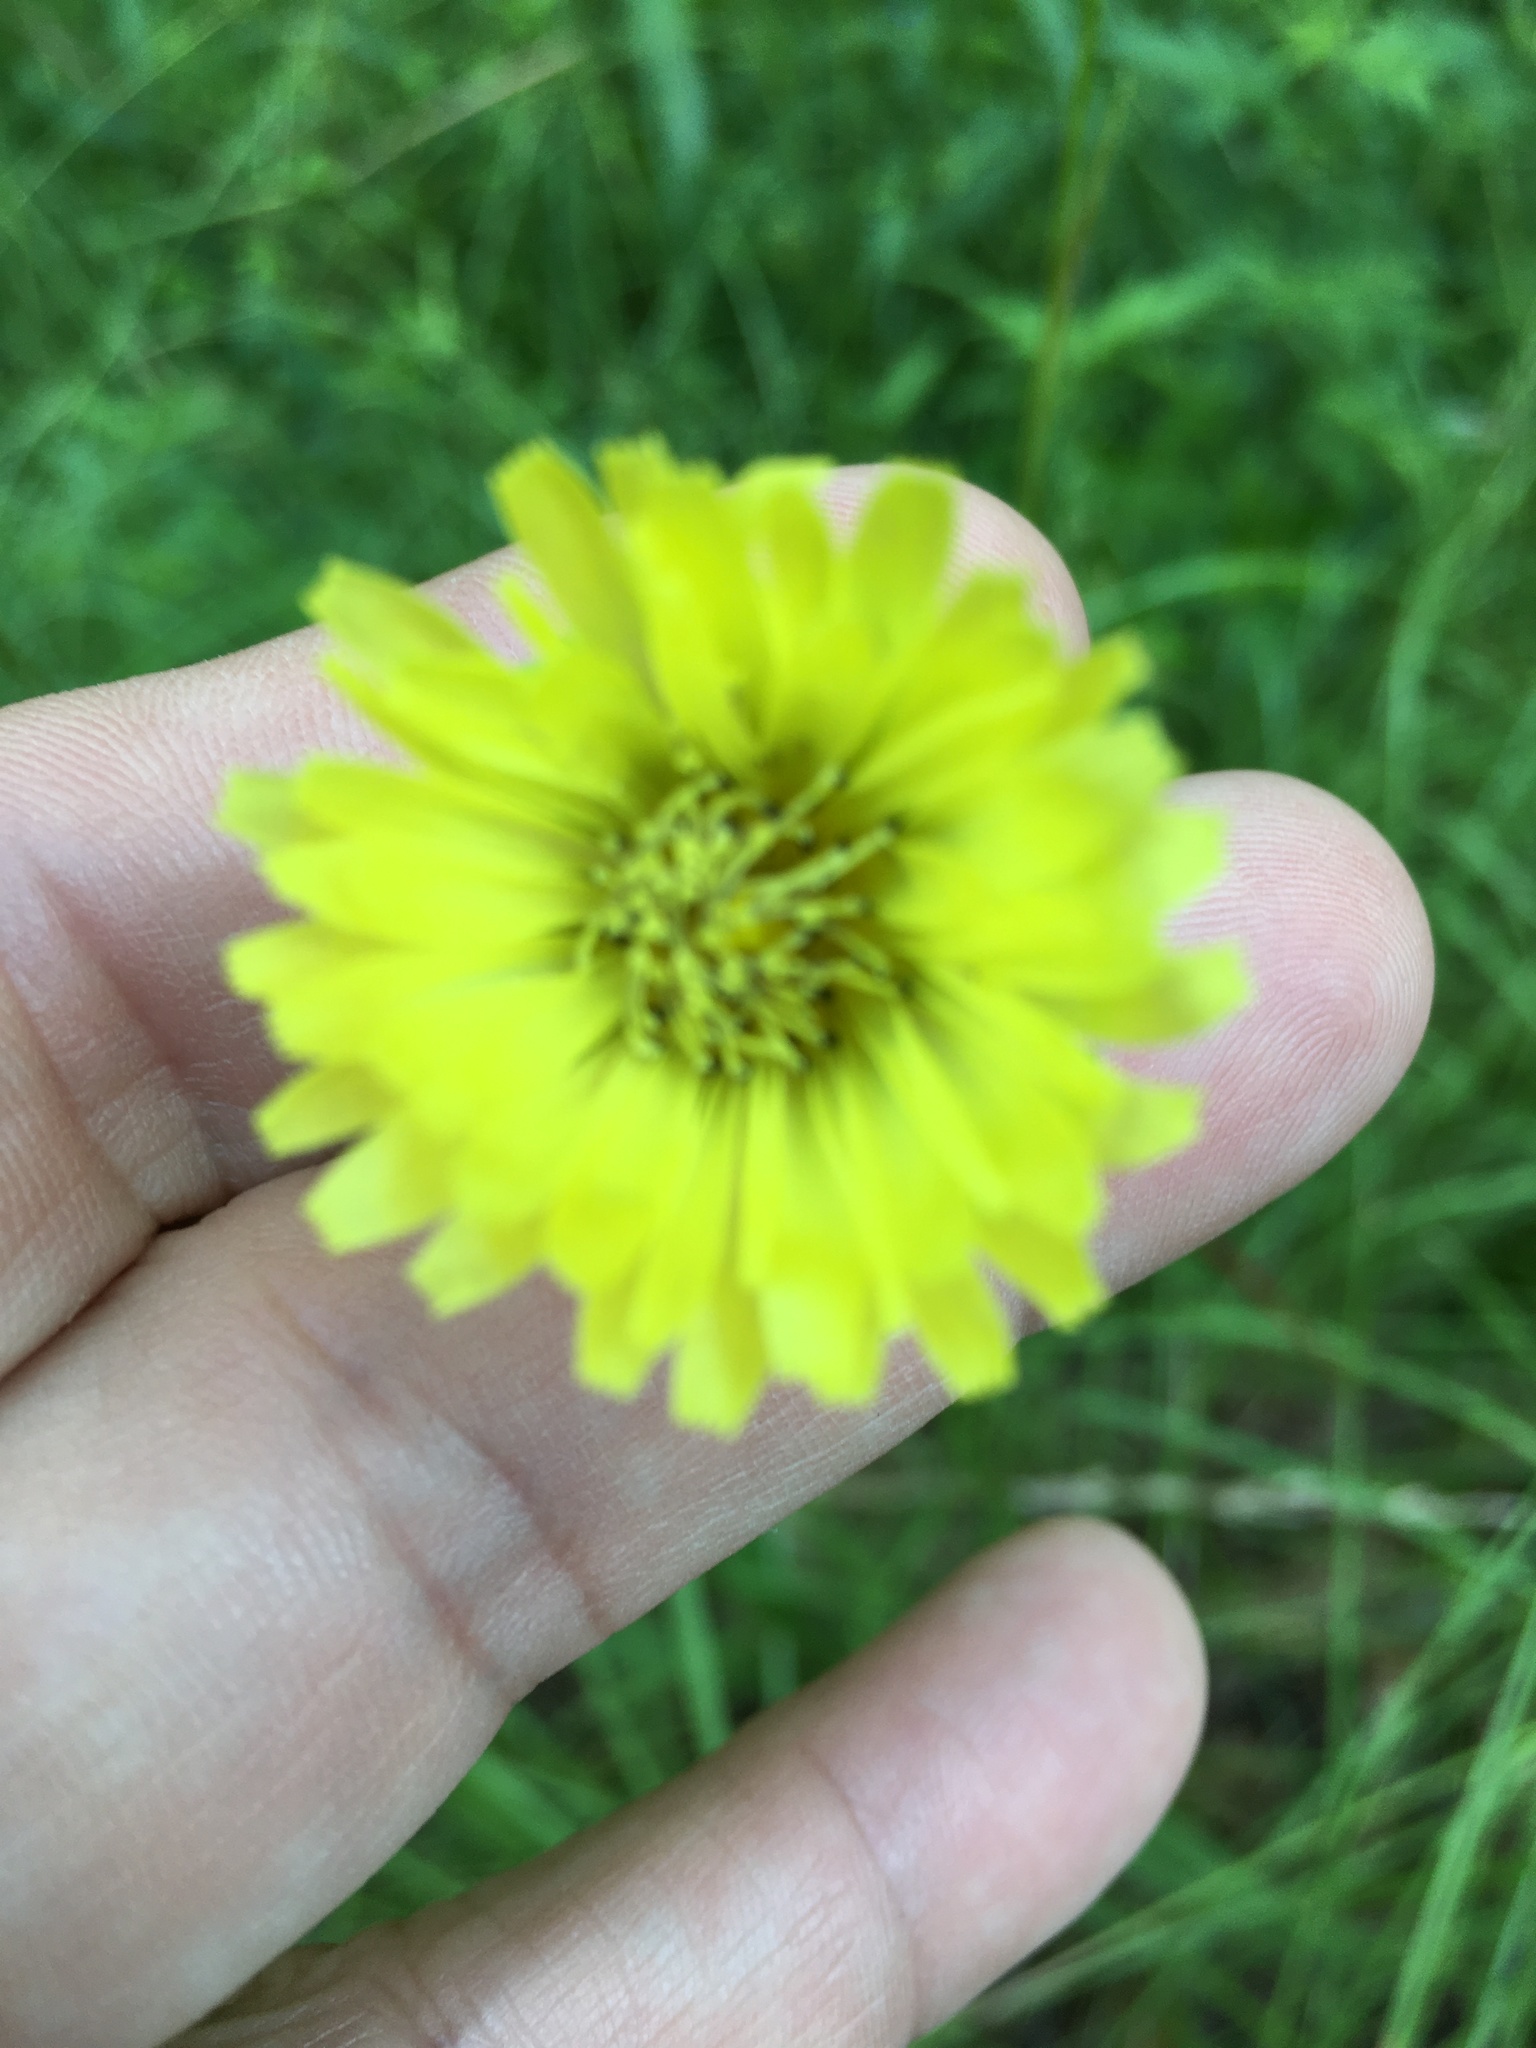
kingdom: Plantae
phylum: Tracheophyta
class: Magnoliopsida
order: Asterales
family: Asteraceae
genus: Pyrrhopappus
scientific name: Pyrrhopappus carolinianus
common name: Carolina desert-chicory
